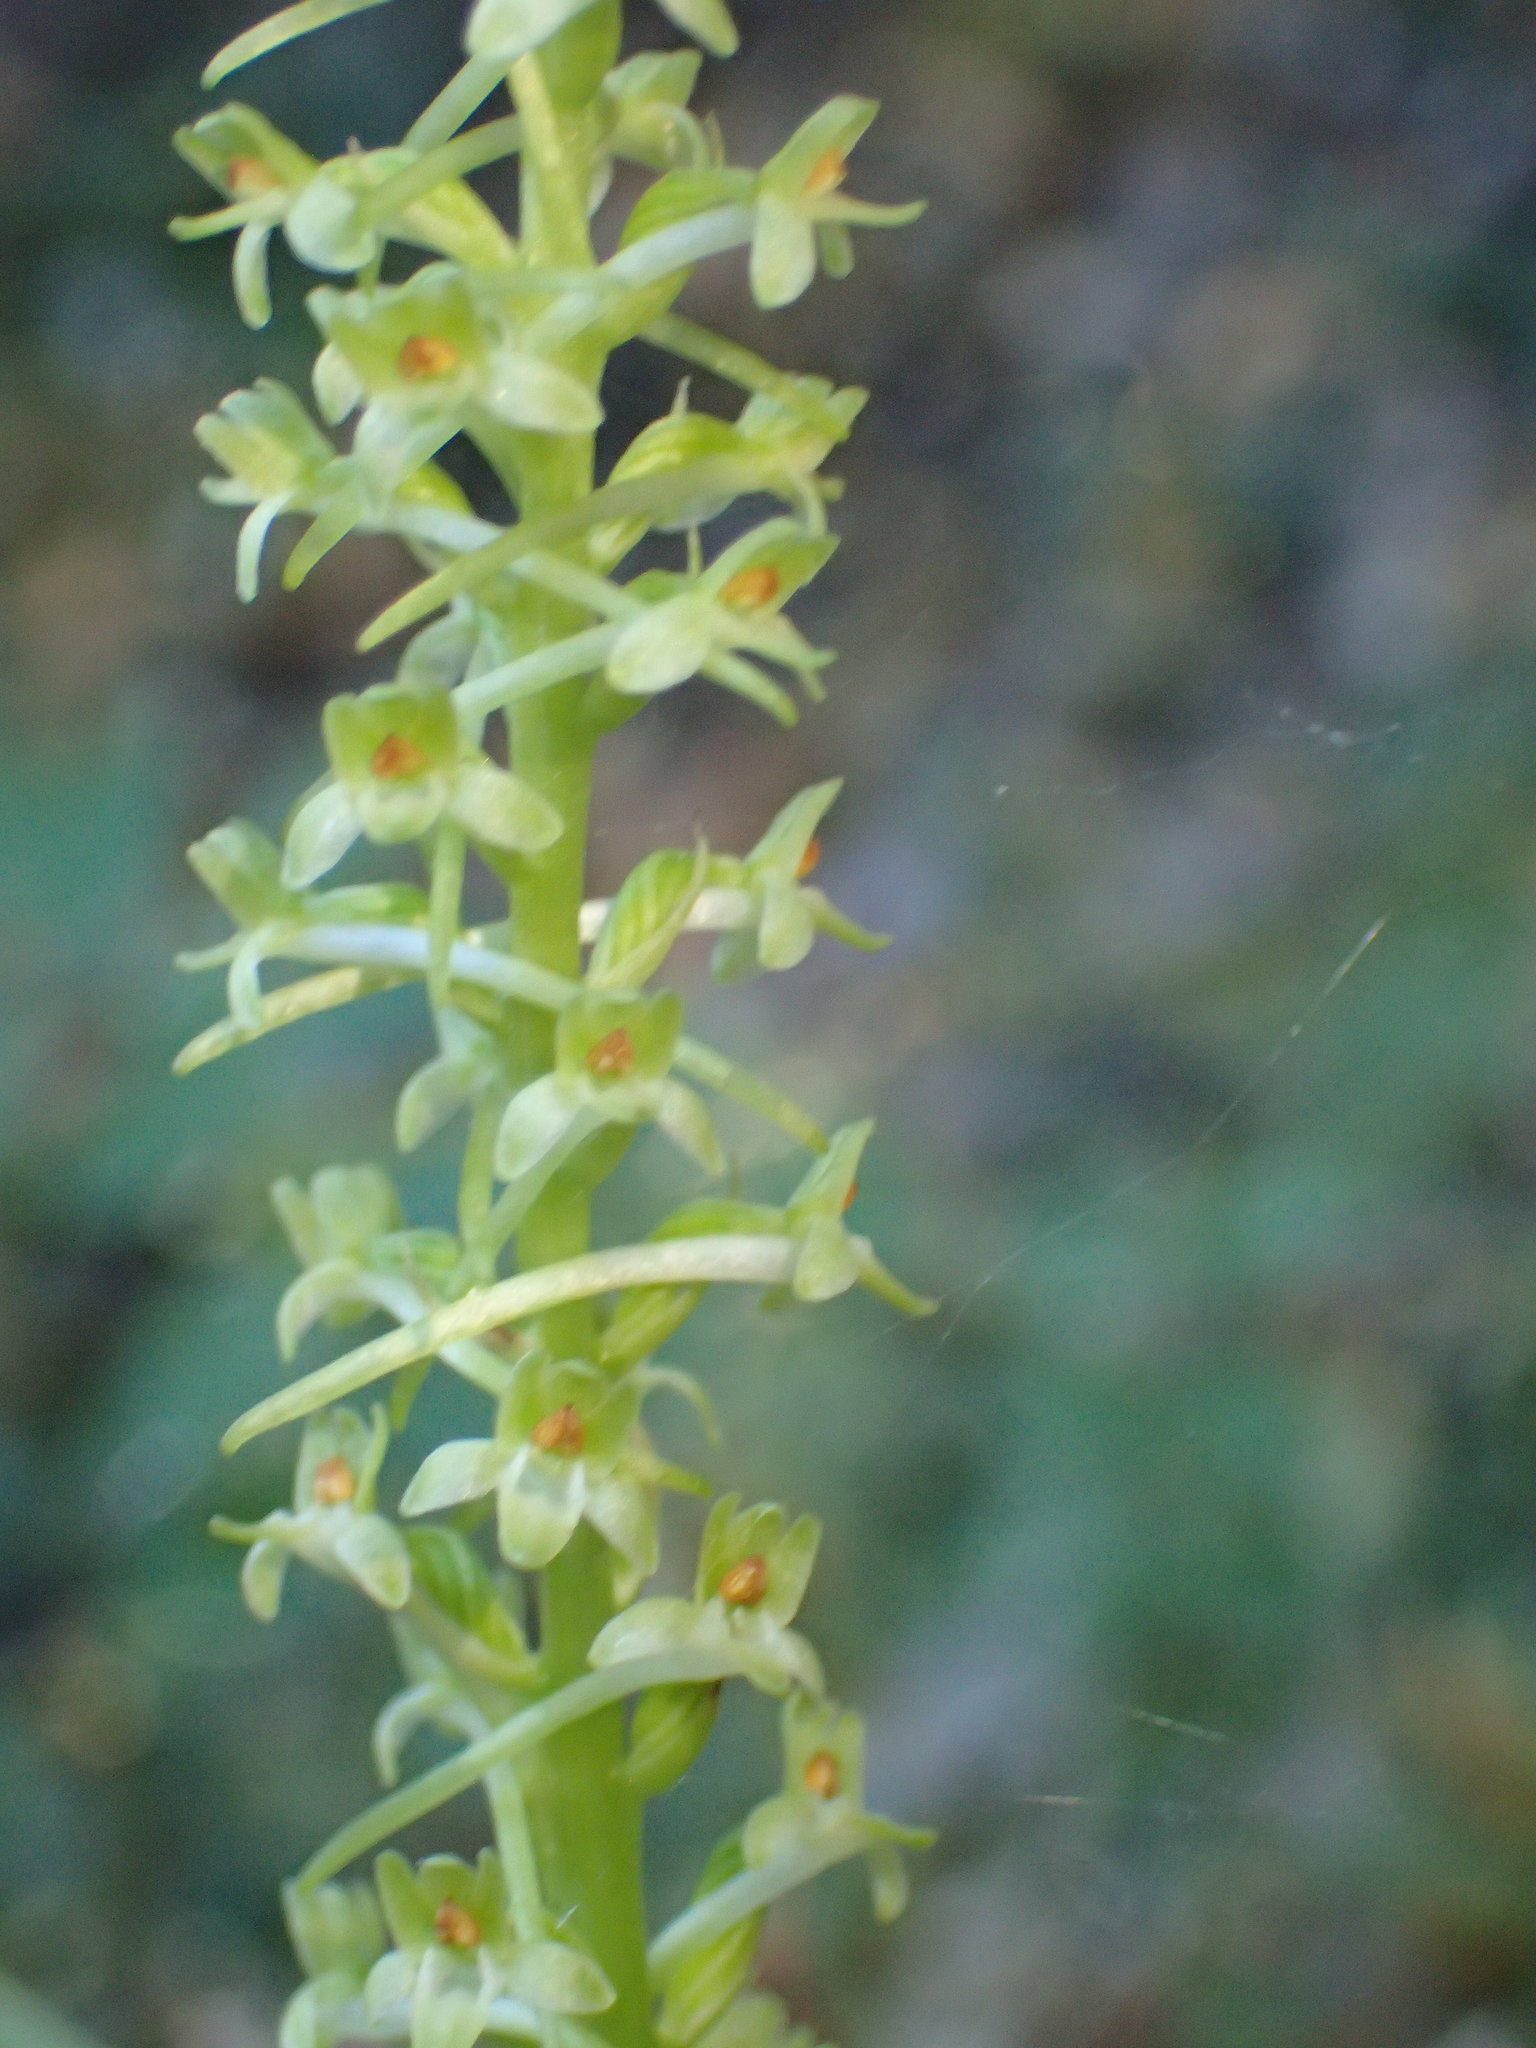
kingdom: Plantae
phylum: Tracheophyta
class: Liliopsida
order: Asparagales
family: Orchidaceae
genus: Platanthera
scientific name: Platanthera elongata
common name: Dense-flowered rein orchid
